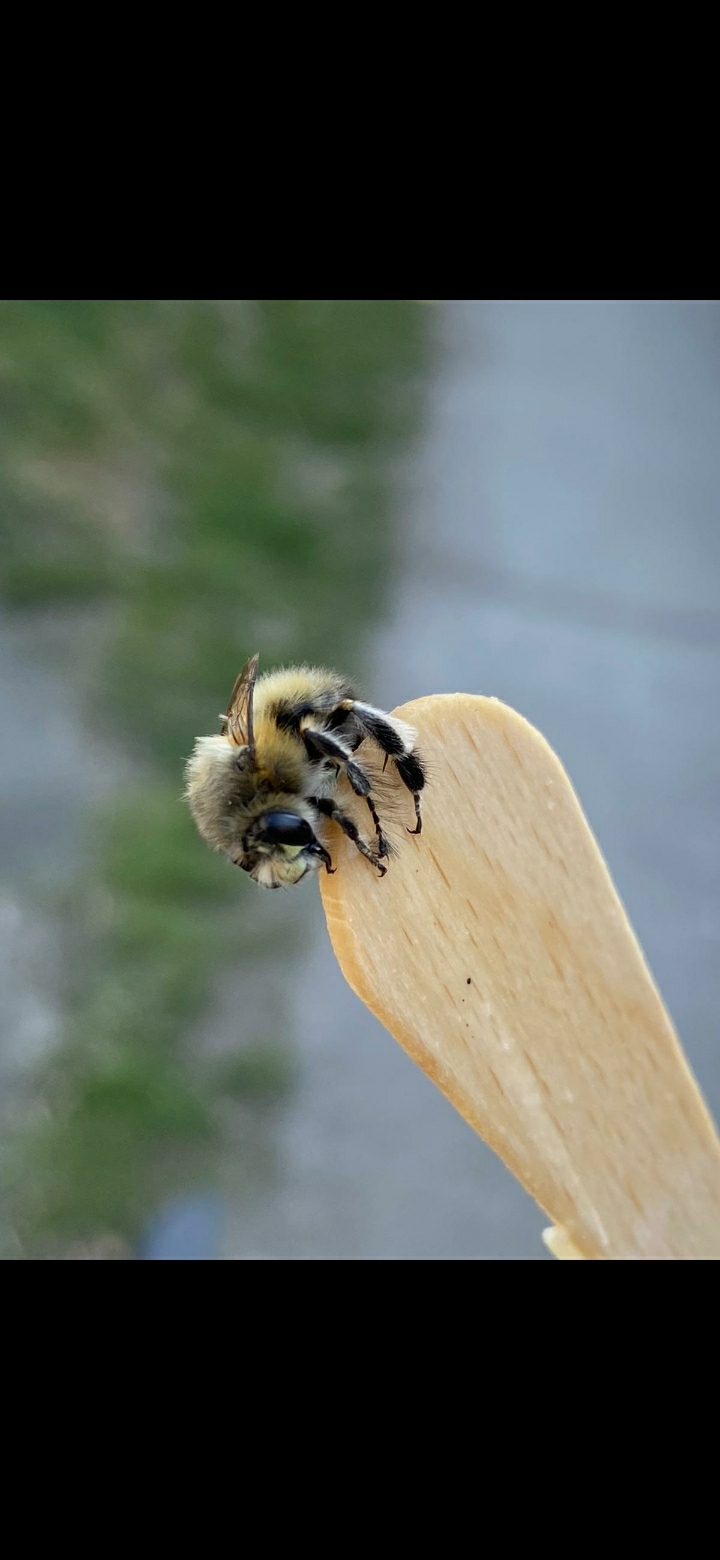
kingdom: Animalia
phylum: Arthropoda
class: Insecta
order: Hymenoptera
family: Apidae
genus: Anthophora
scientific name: Anthophora plumipes
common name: Hairy-footed flower bee
